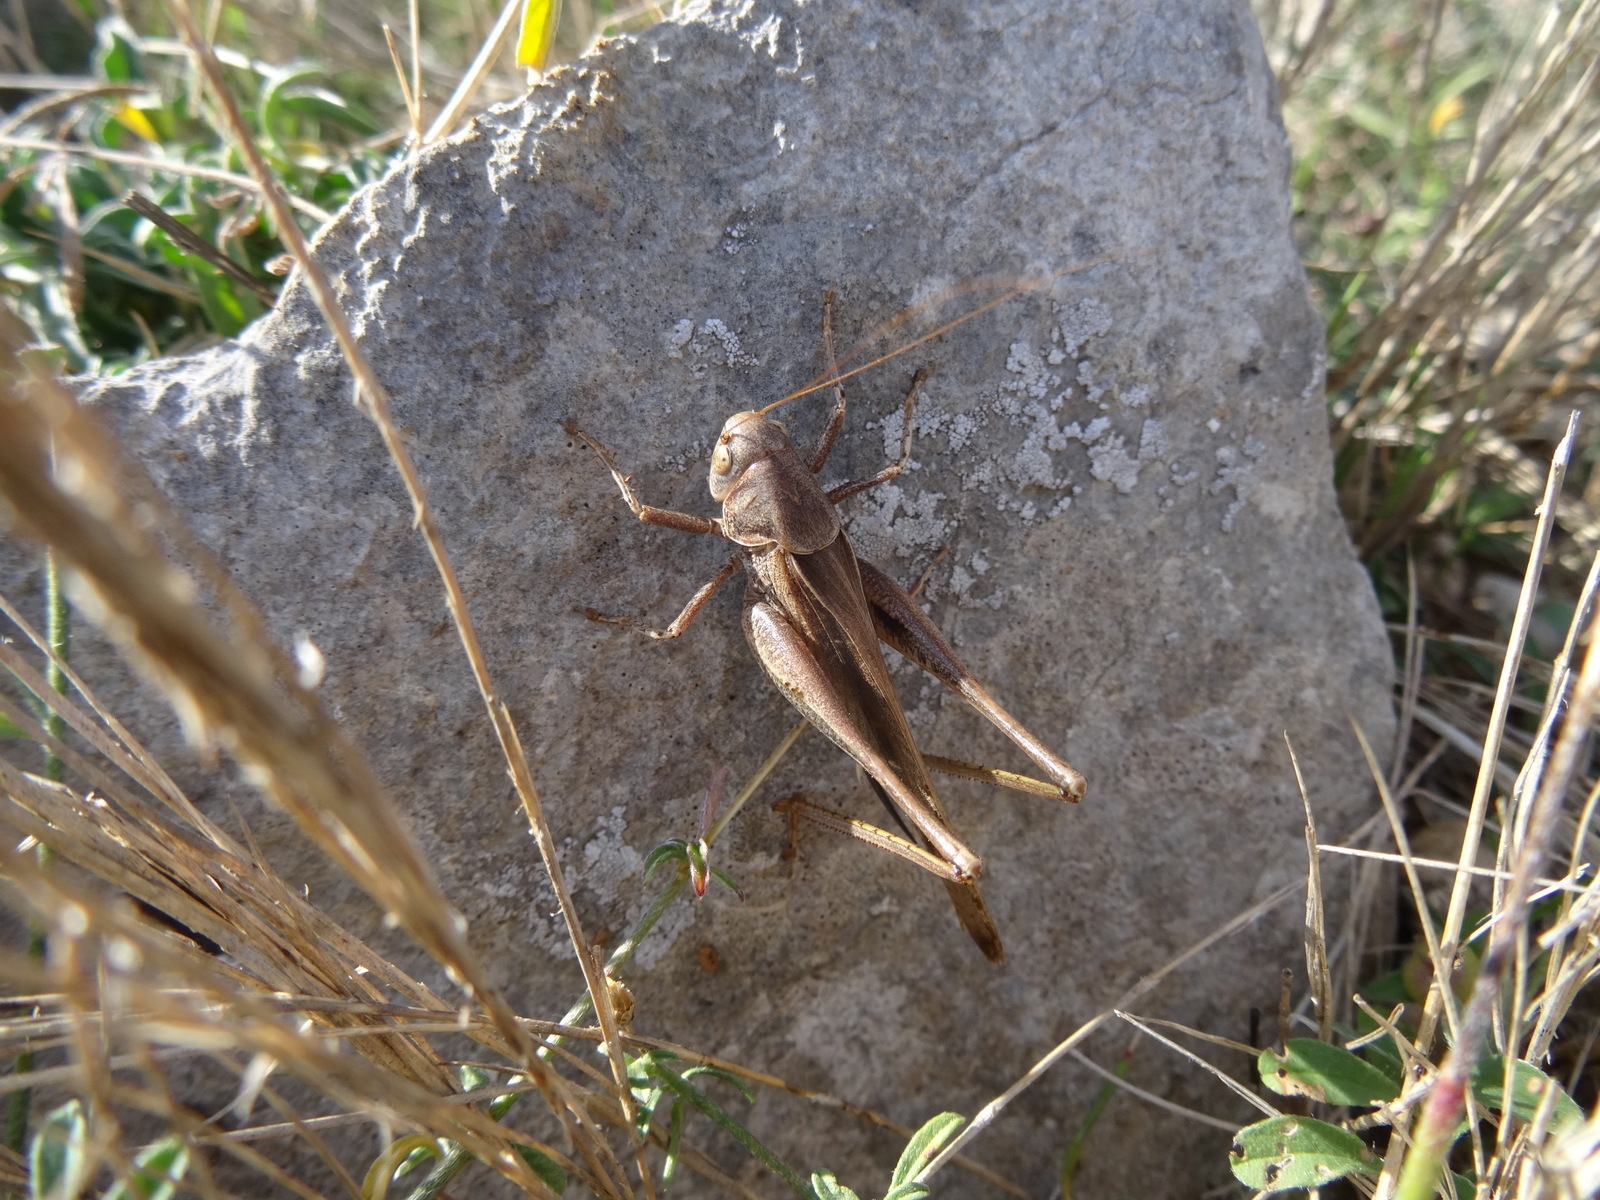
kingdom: Animalia
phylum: Arthropoda
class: Insecta
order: Orthoptera
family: Tettigoniidae
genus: Platycleis
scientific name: Platycleis
